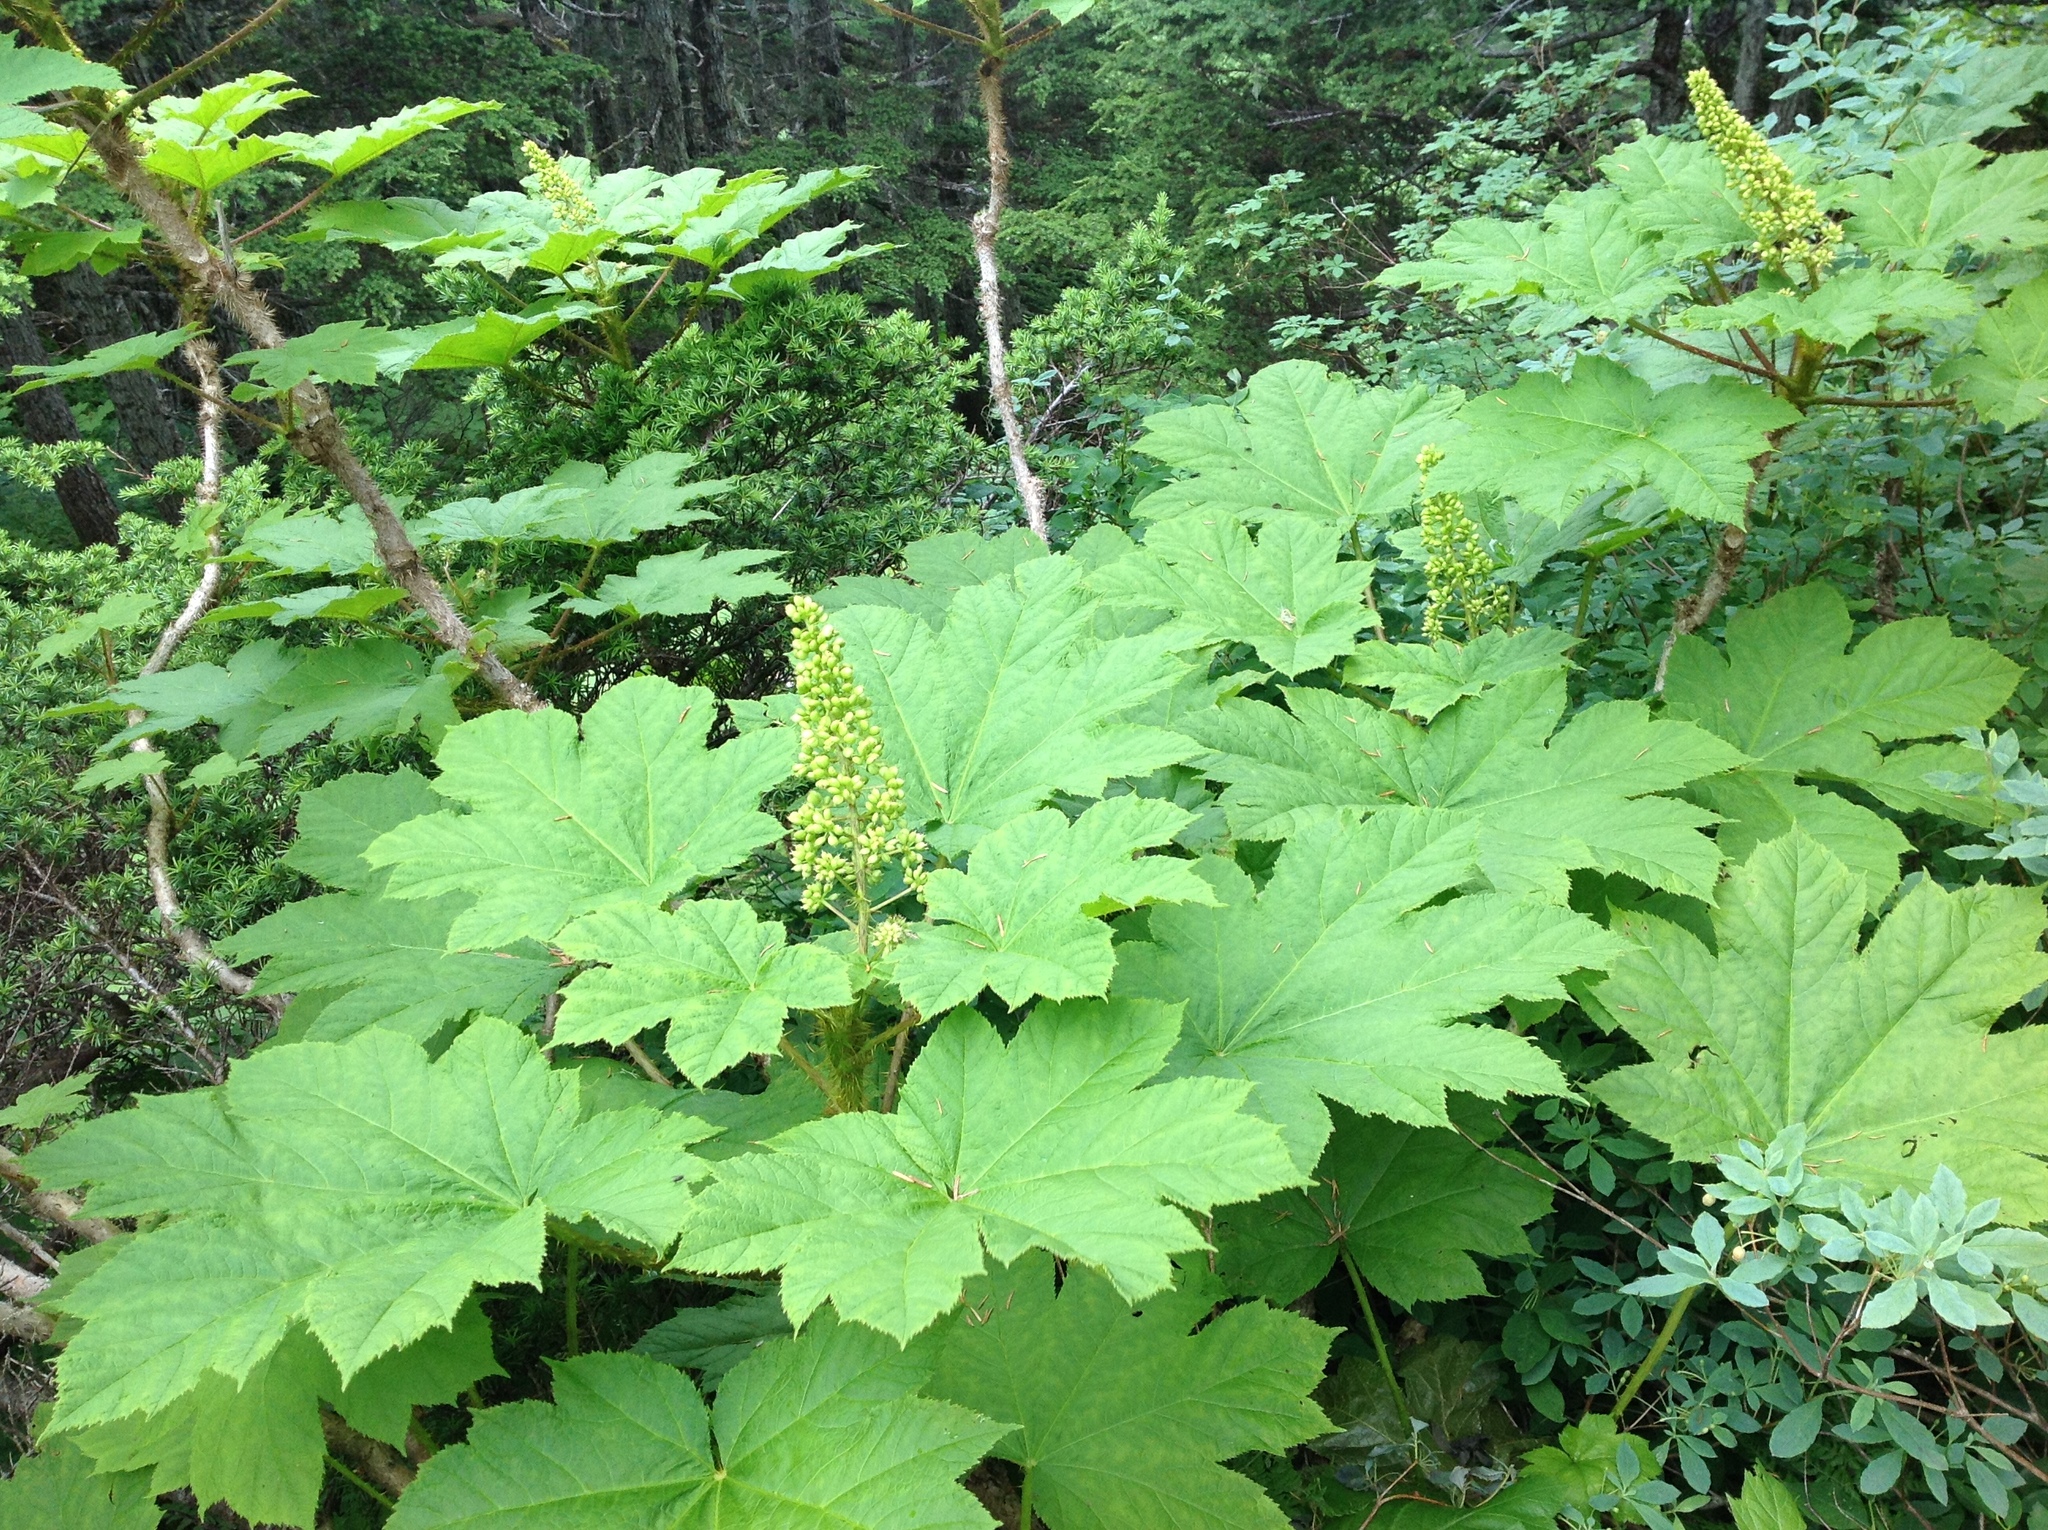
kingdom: Plantae
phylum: Tracheophyta
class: Magnoliopsida
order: Apiales
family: Araliaceae
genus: Oplopanax
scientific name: Oplopanax horridus
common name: Devil's walking-stick
